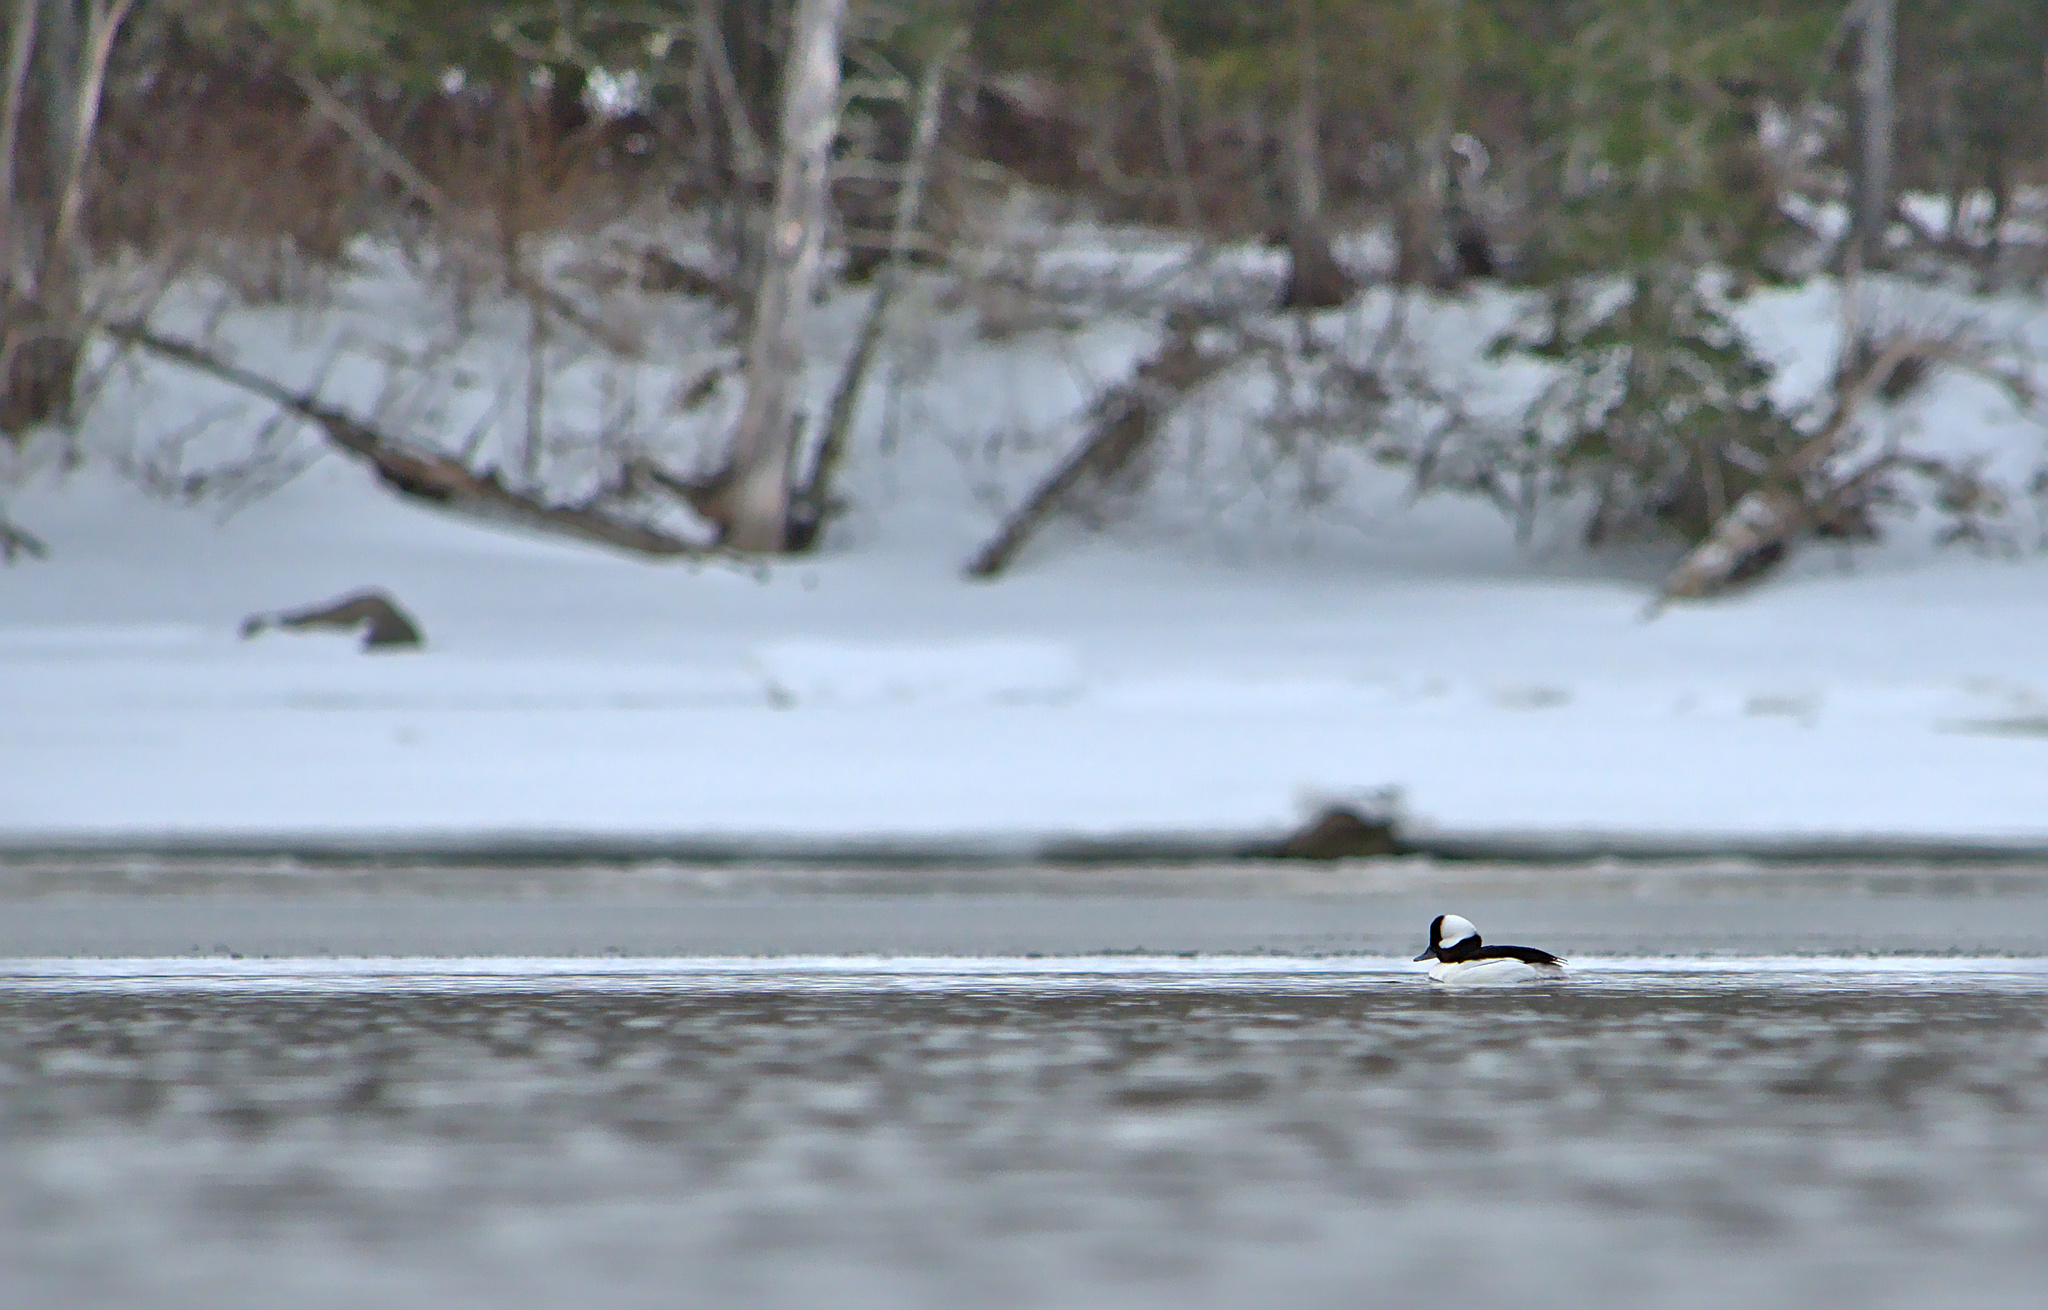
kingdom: Animalia
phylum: Chordata
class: Aves
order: Anseriformes
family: Anatidae
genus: Bucephala
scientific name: Bucephala albeola
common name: Bufflehead
